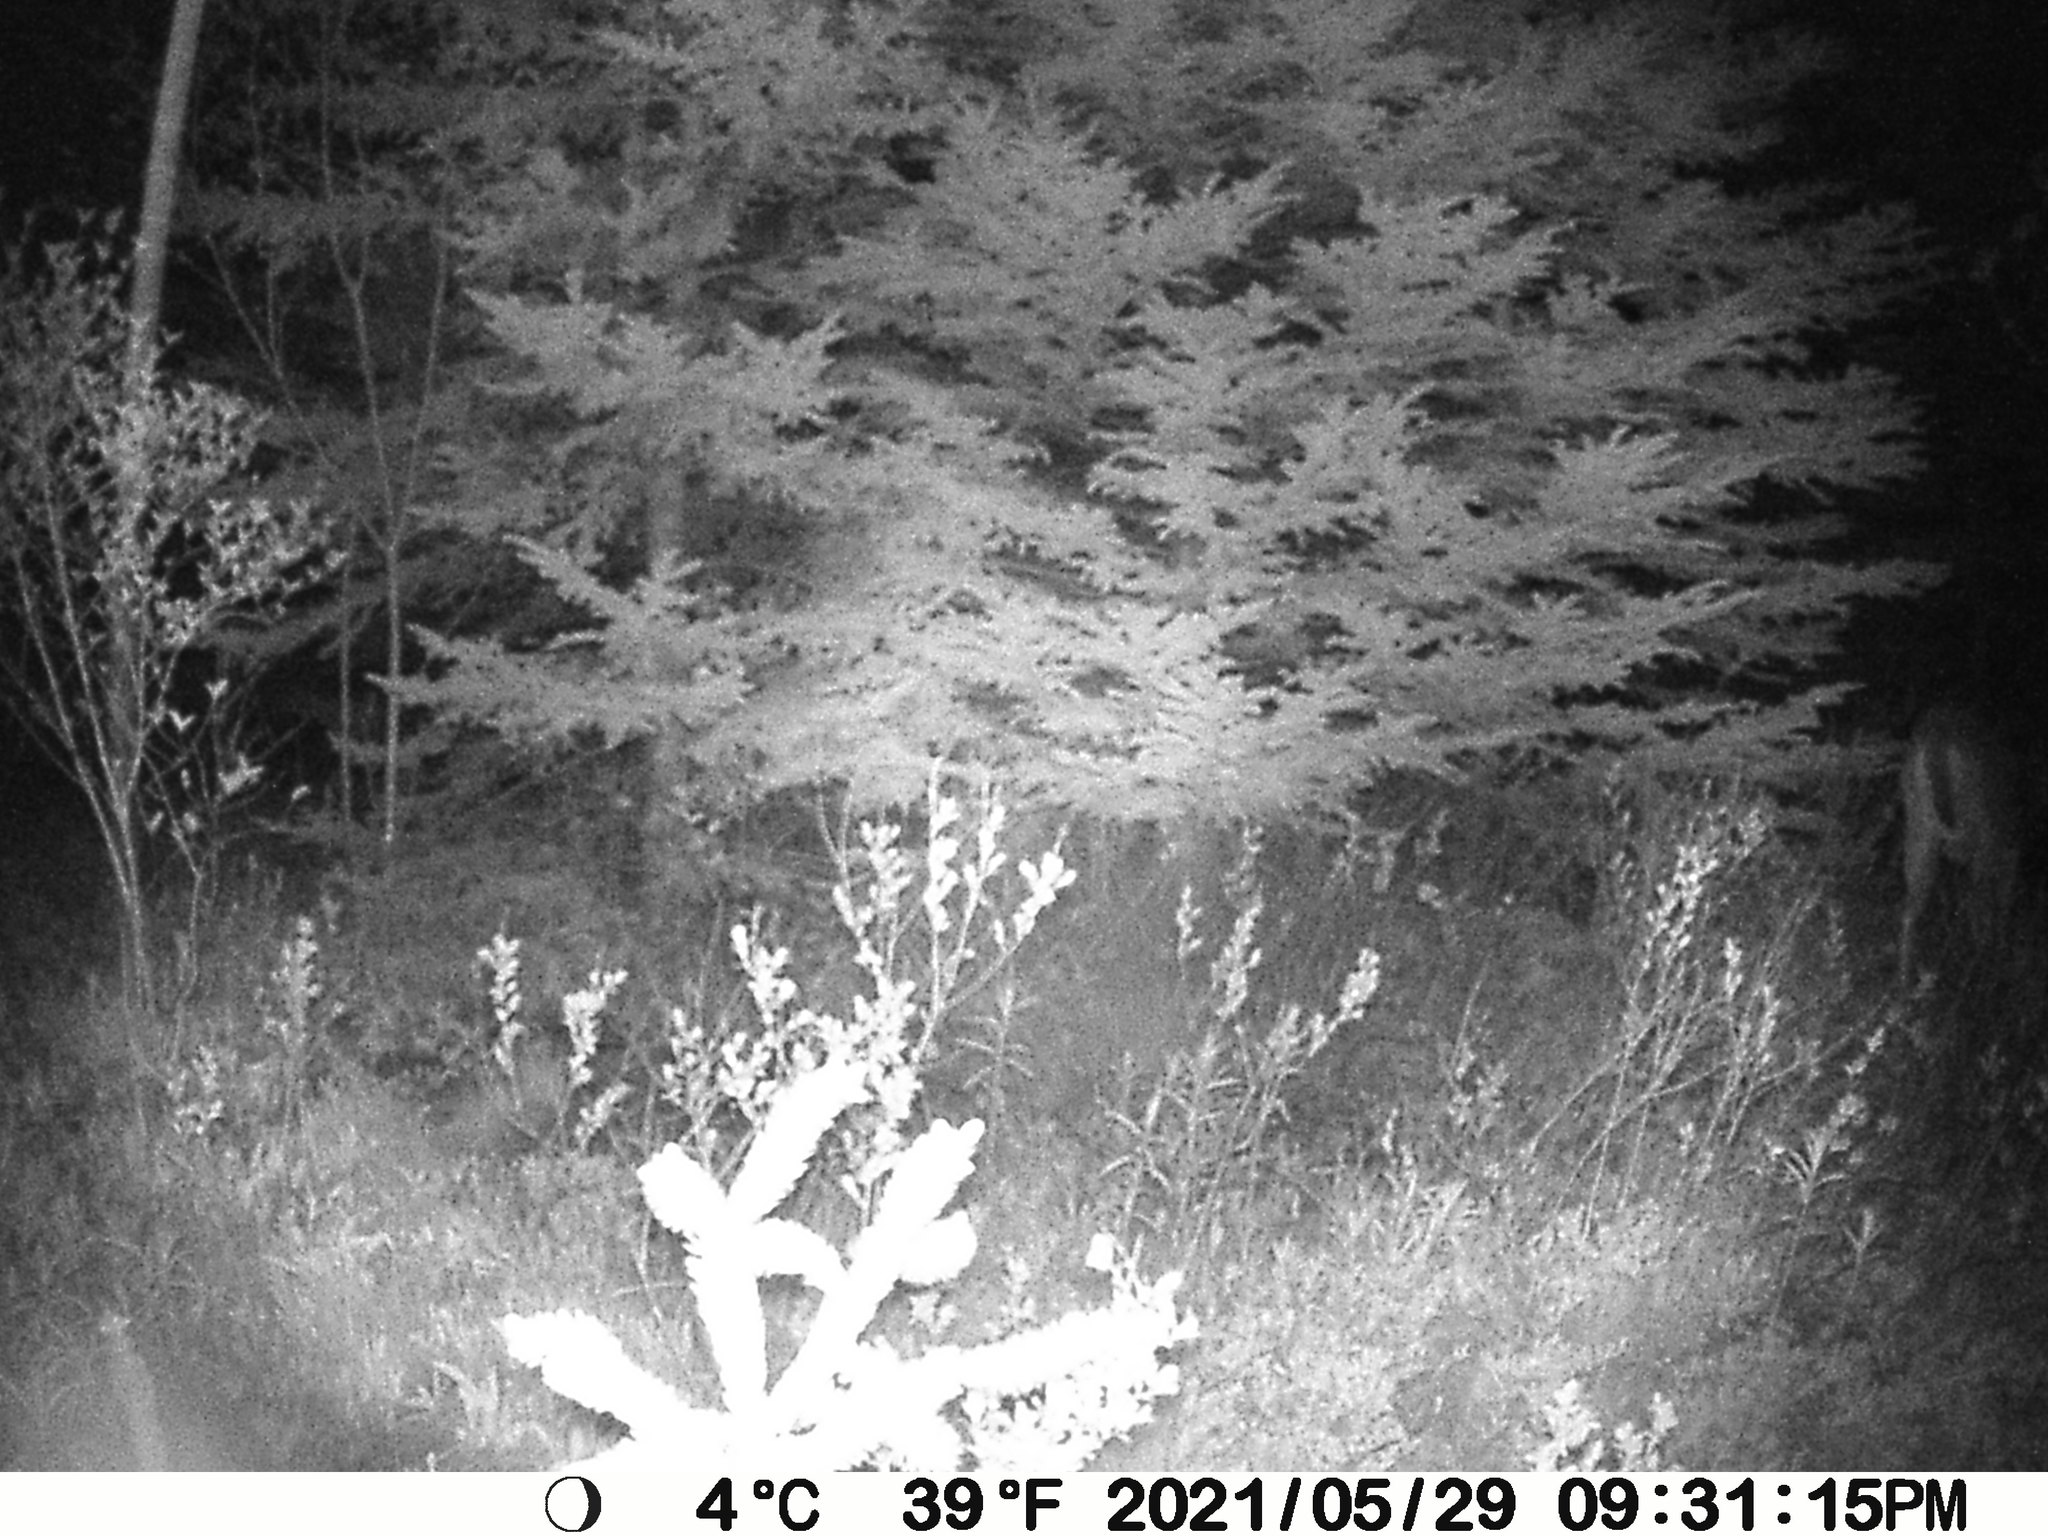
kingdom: Animalia
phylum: Chordata
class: Mammalia
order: Artiodactyla
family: Cervidae
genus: Odocoileus
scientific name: Odocoileus virginianus
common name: White-tailed deer
